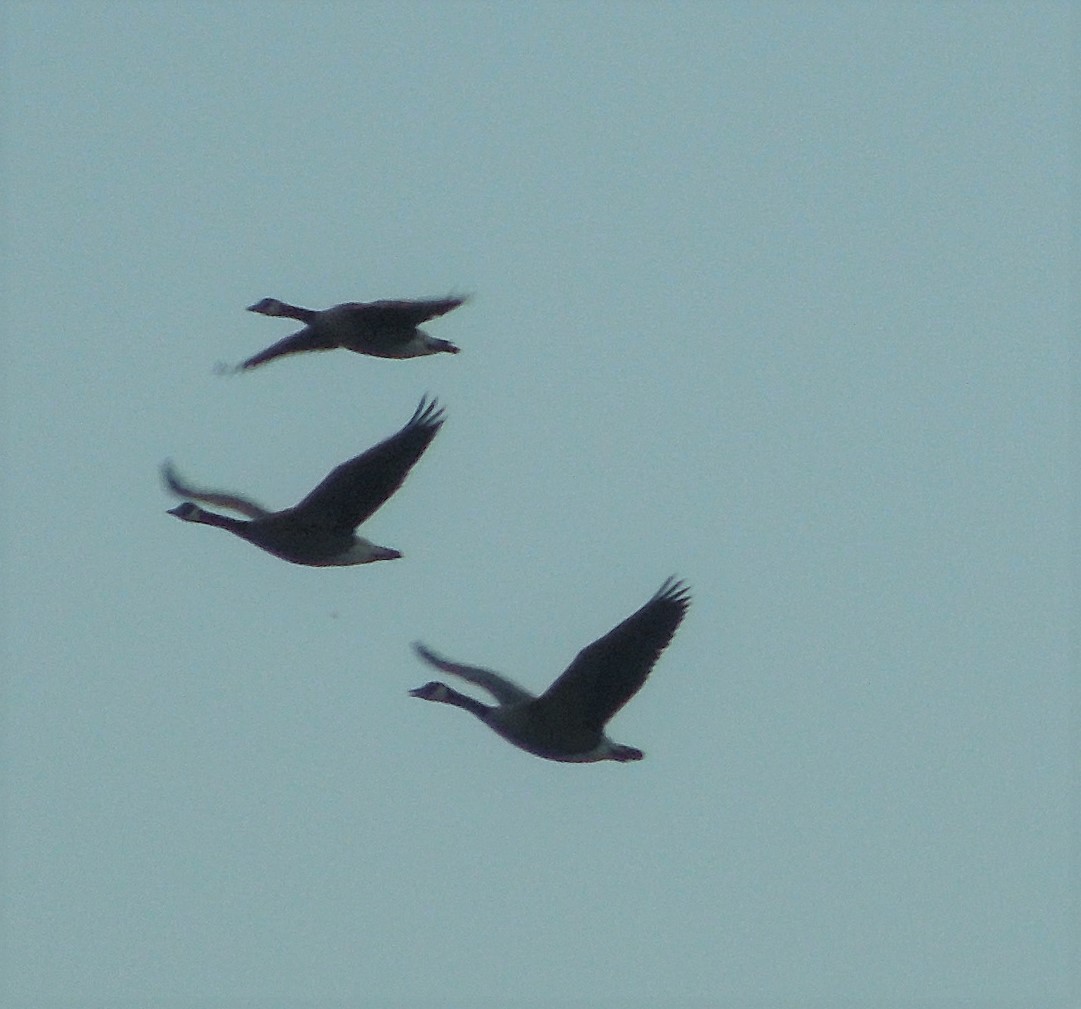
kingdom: Animalia
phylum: Chordata
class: Aves
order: Anseriformes
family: Anatidae
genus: Branta
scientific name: Branta canadensis
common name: Canada goose
